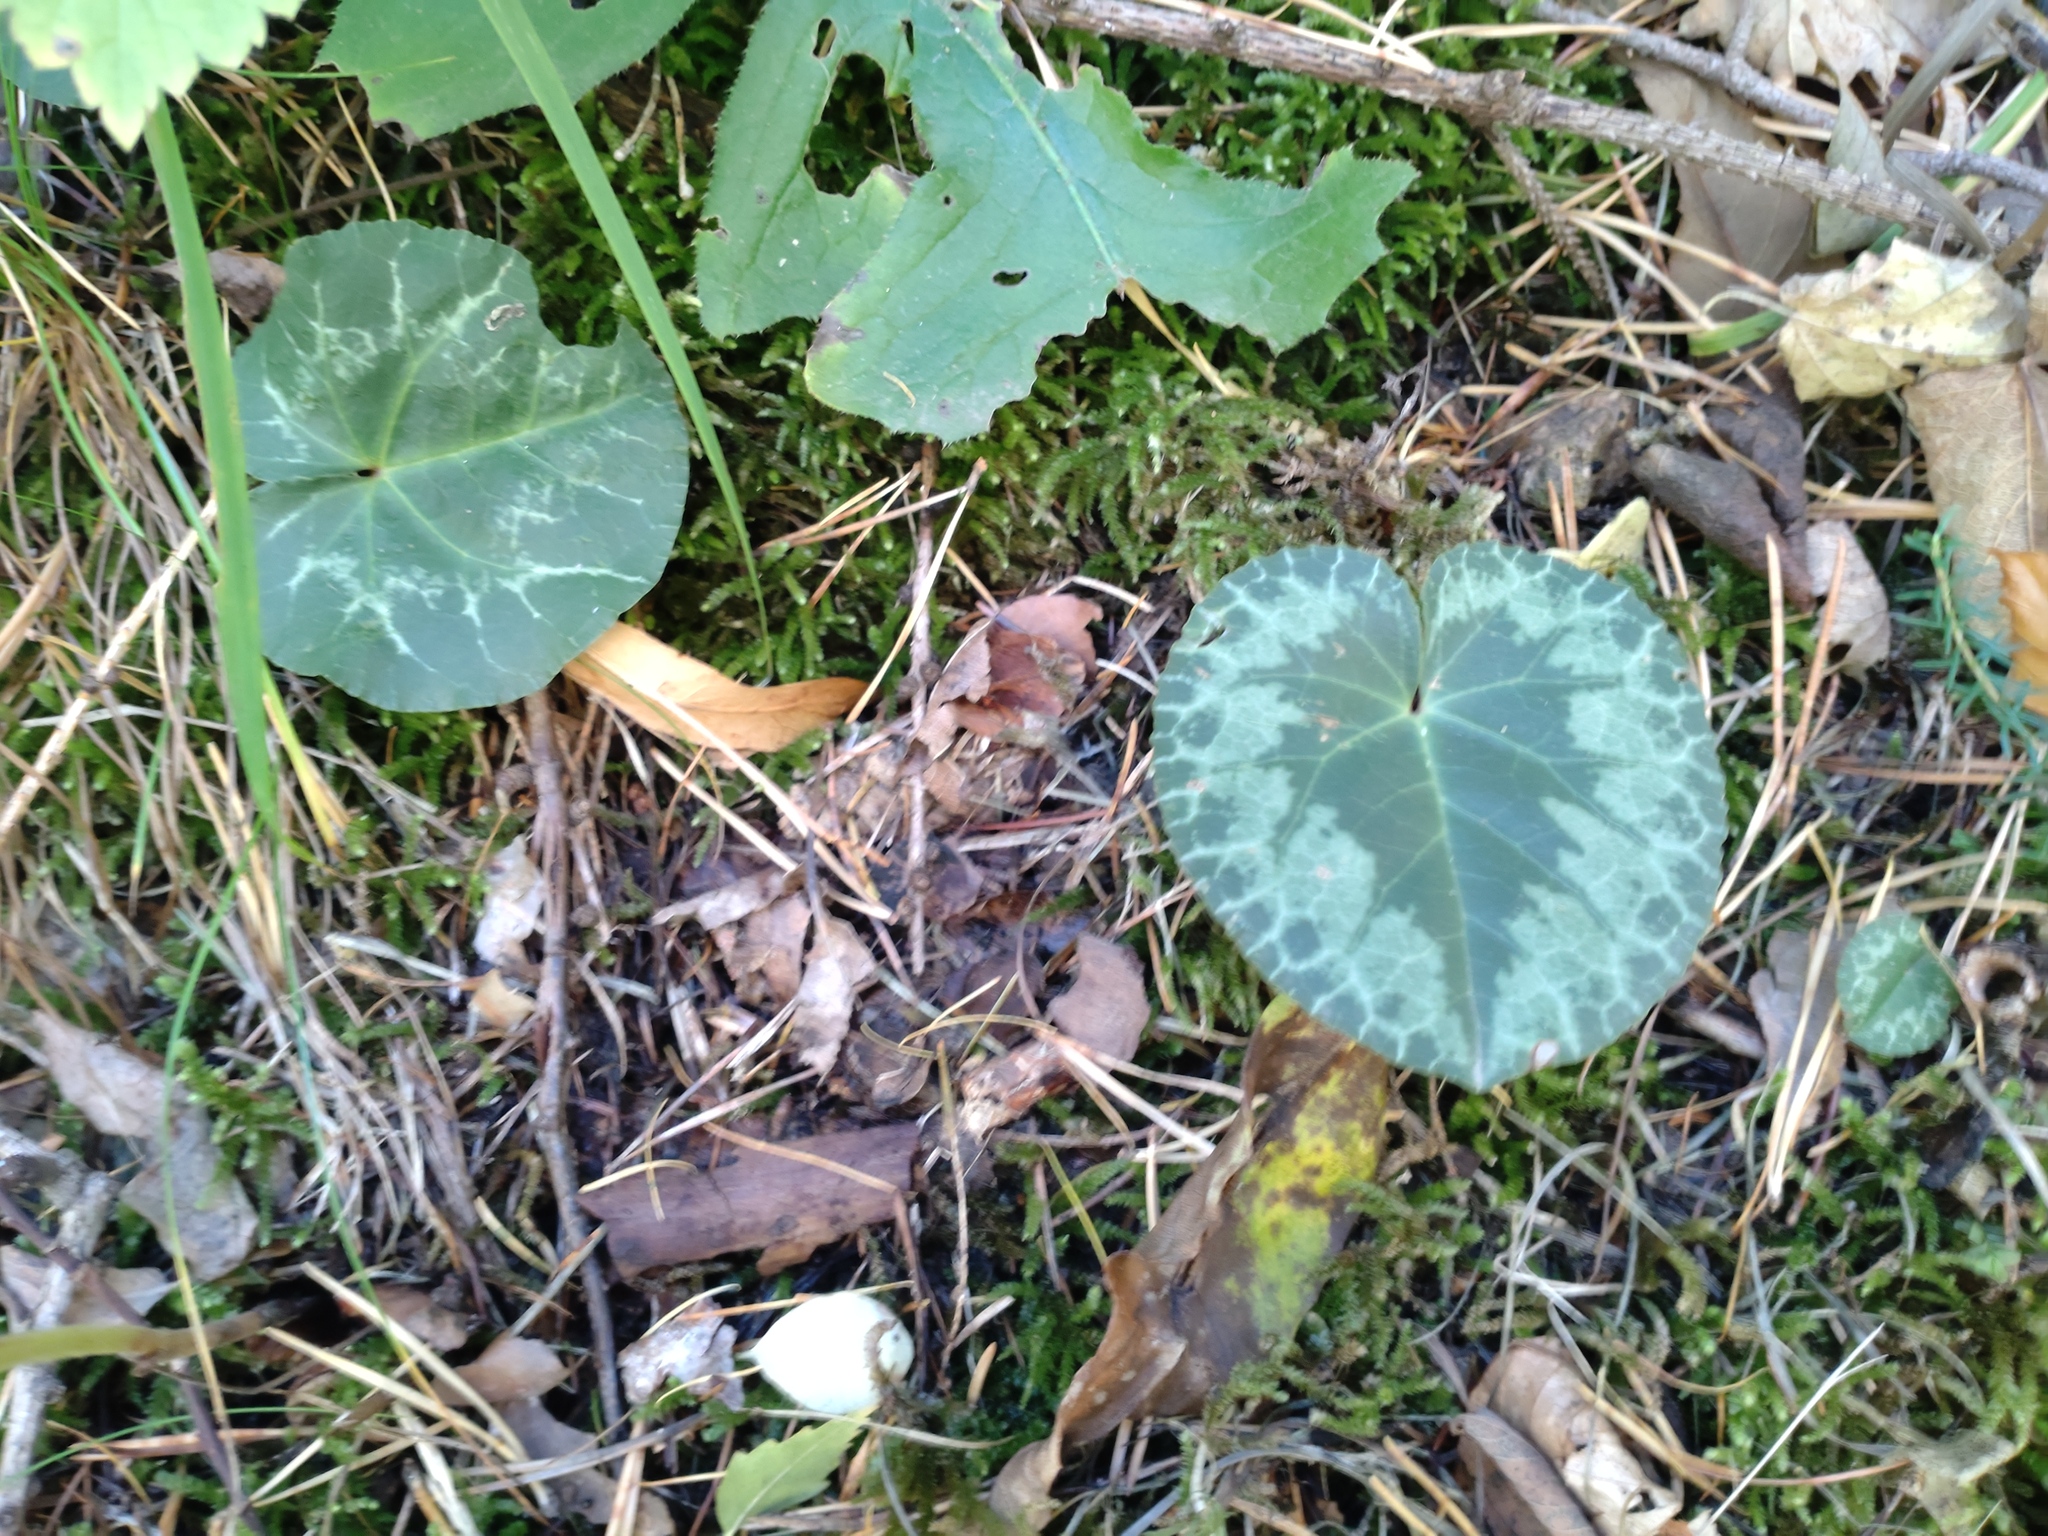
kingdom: Plantae
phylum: Tracheophyta
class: Magnoliopsida
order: Ericales
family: Primulaceae
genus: Cyclamen
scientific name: Cyclamen purpurascens
